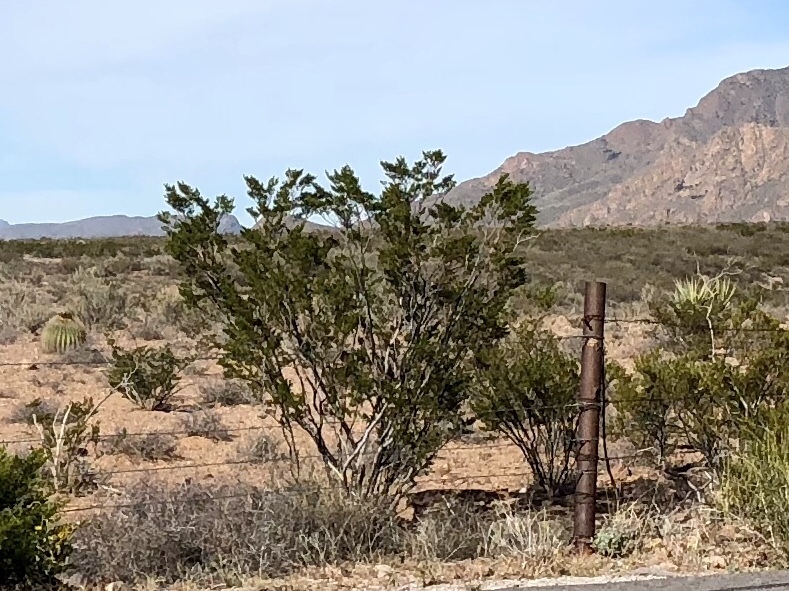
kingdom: Plantae
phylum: Tracheophyta
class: Magnoliopsida
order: Zygophyllales
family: Zygophyllaceae
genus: Larrea
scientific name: Larrea tridentata
